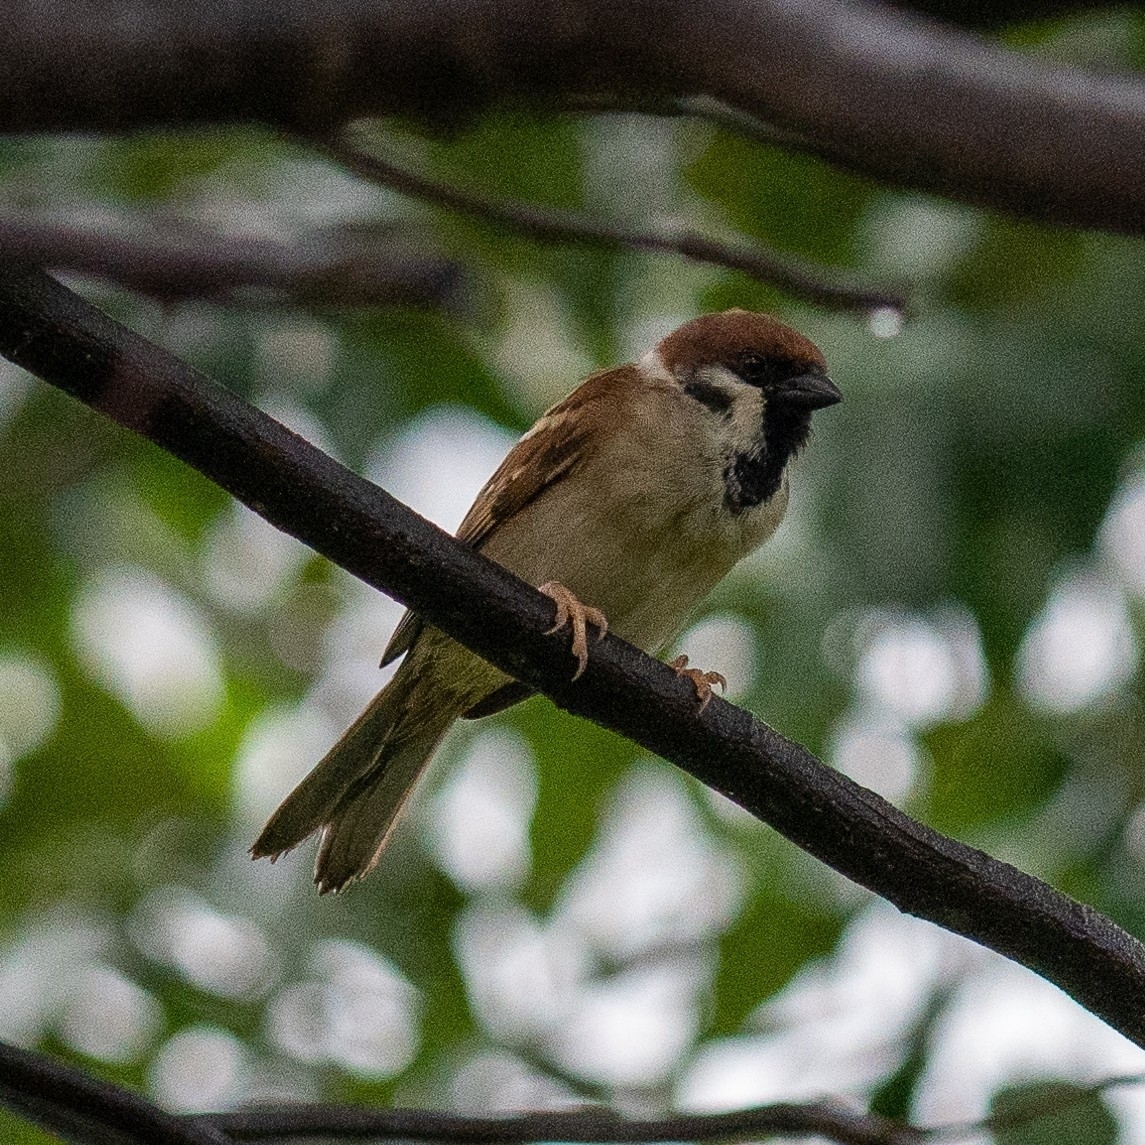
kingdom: Animalia
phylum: Chordata
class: Aves
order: Passeriformes
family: Passeridae
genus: Passer
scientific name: Passer montanus
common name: Eurasian tree sparrow
